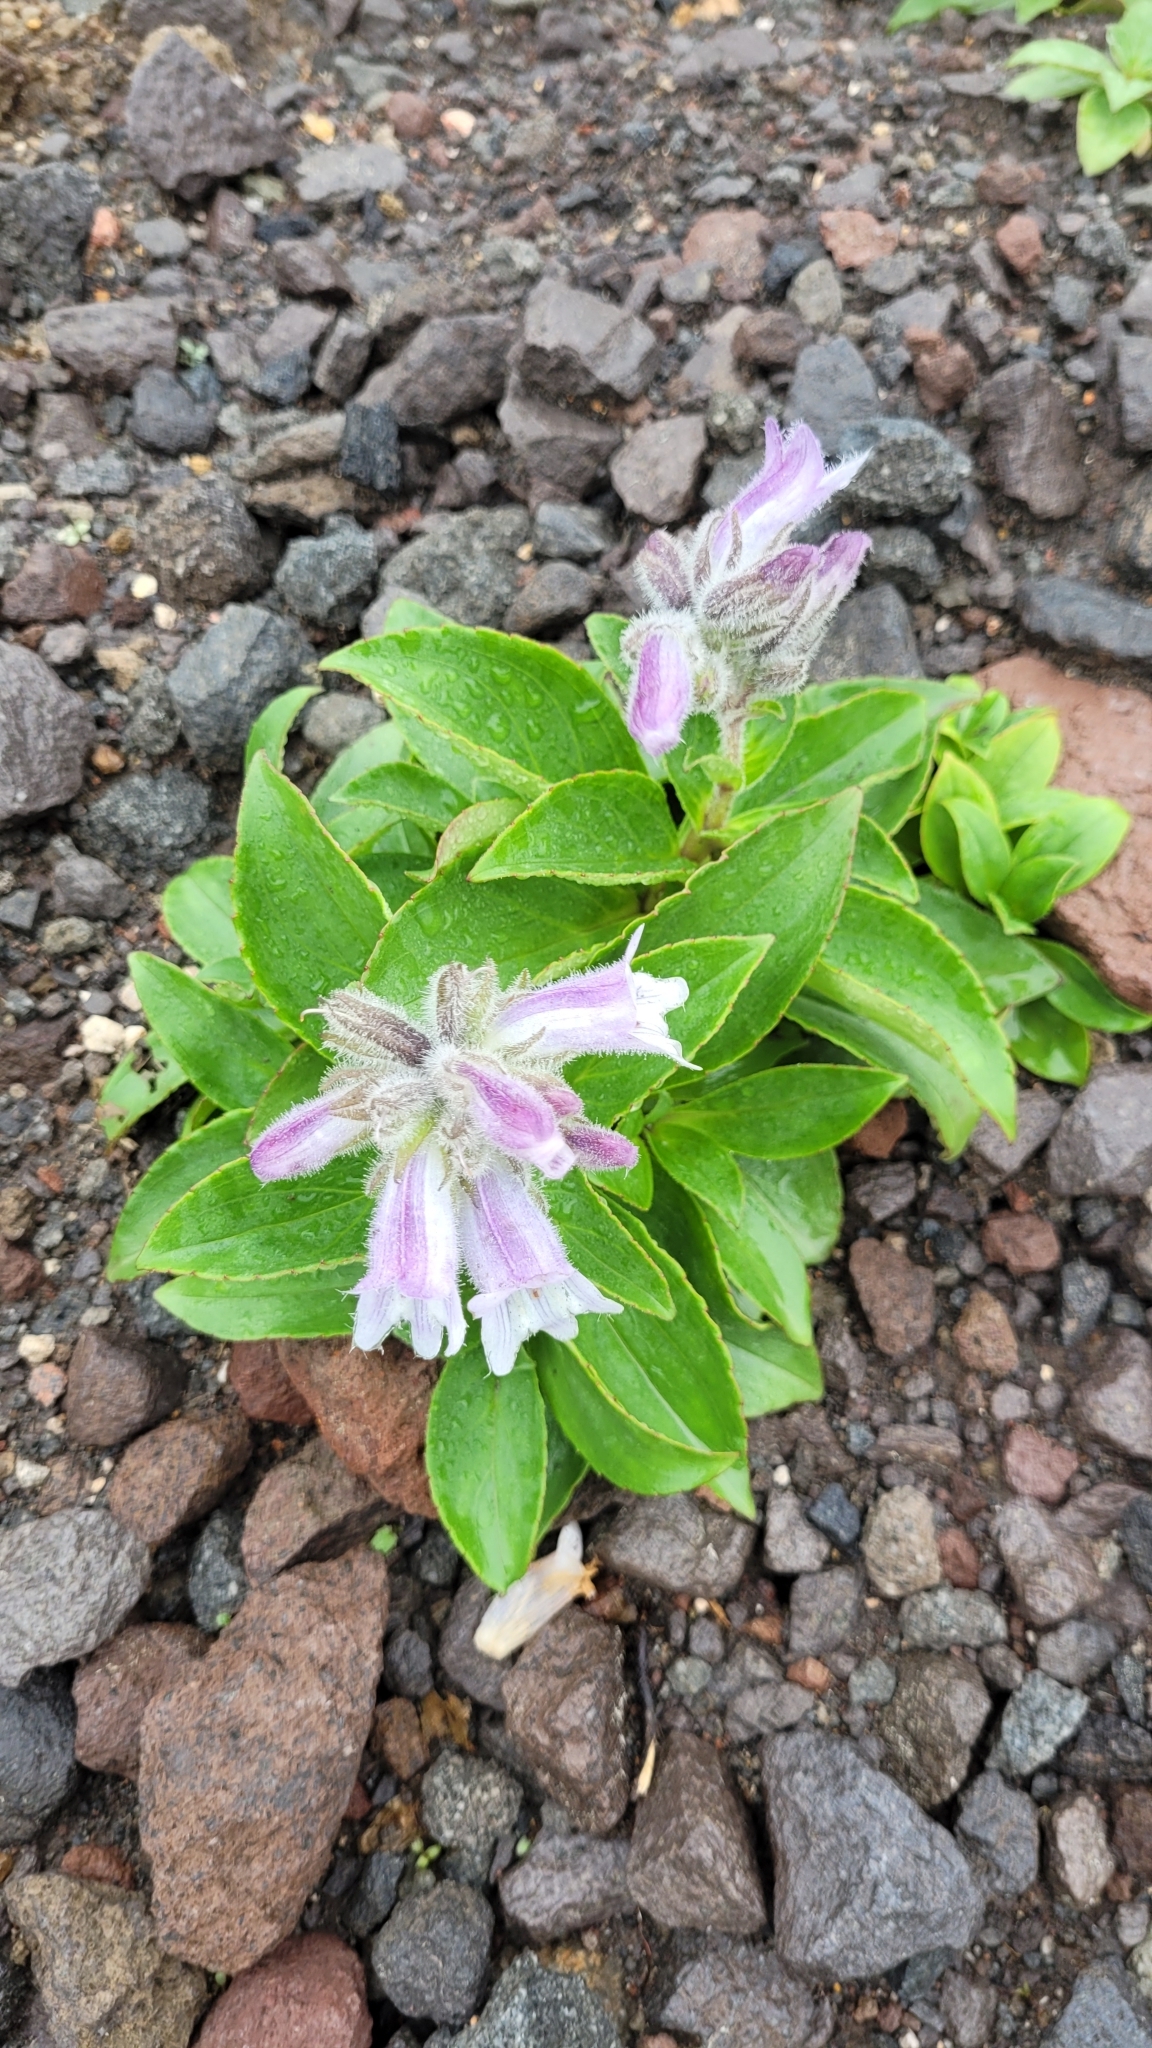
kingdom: Plantae
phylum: Tracheophyta
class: Magnoliopsida
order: Lamiales
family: Plantaginaceae
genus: Pennellianthus
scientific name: Pennellianthus frutescens
